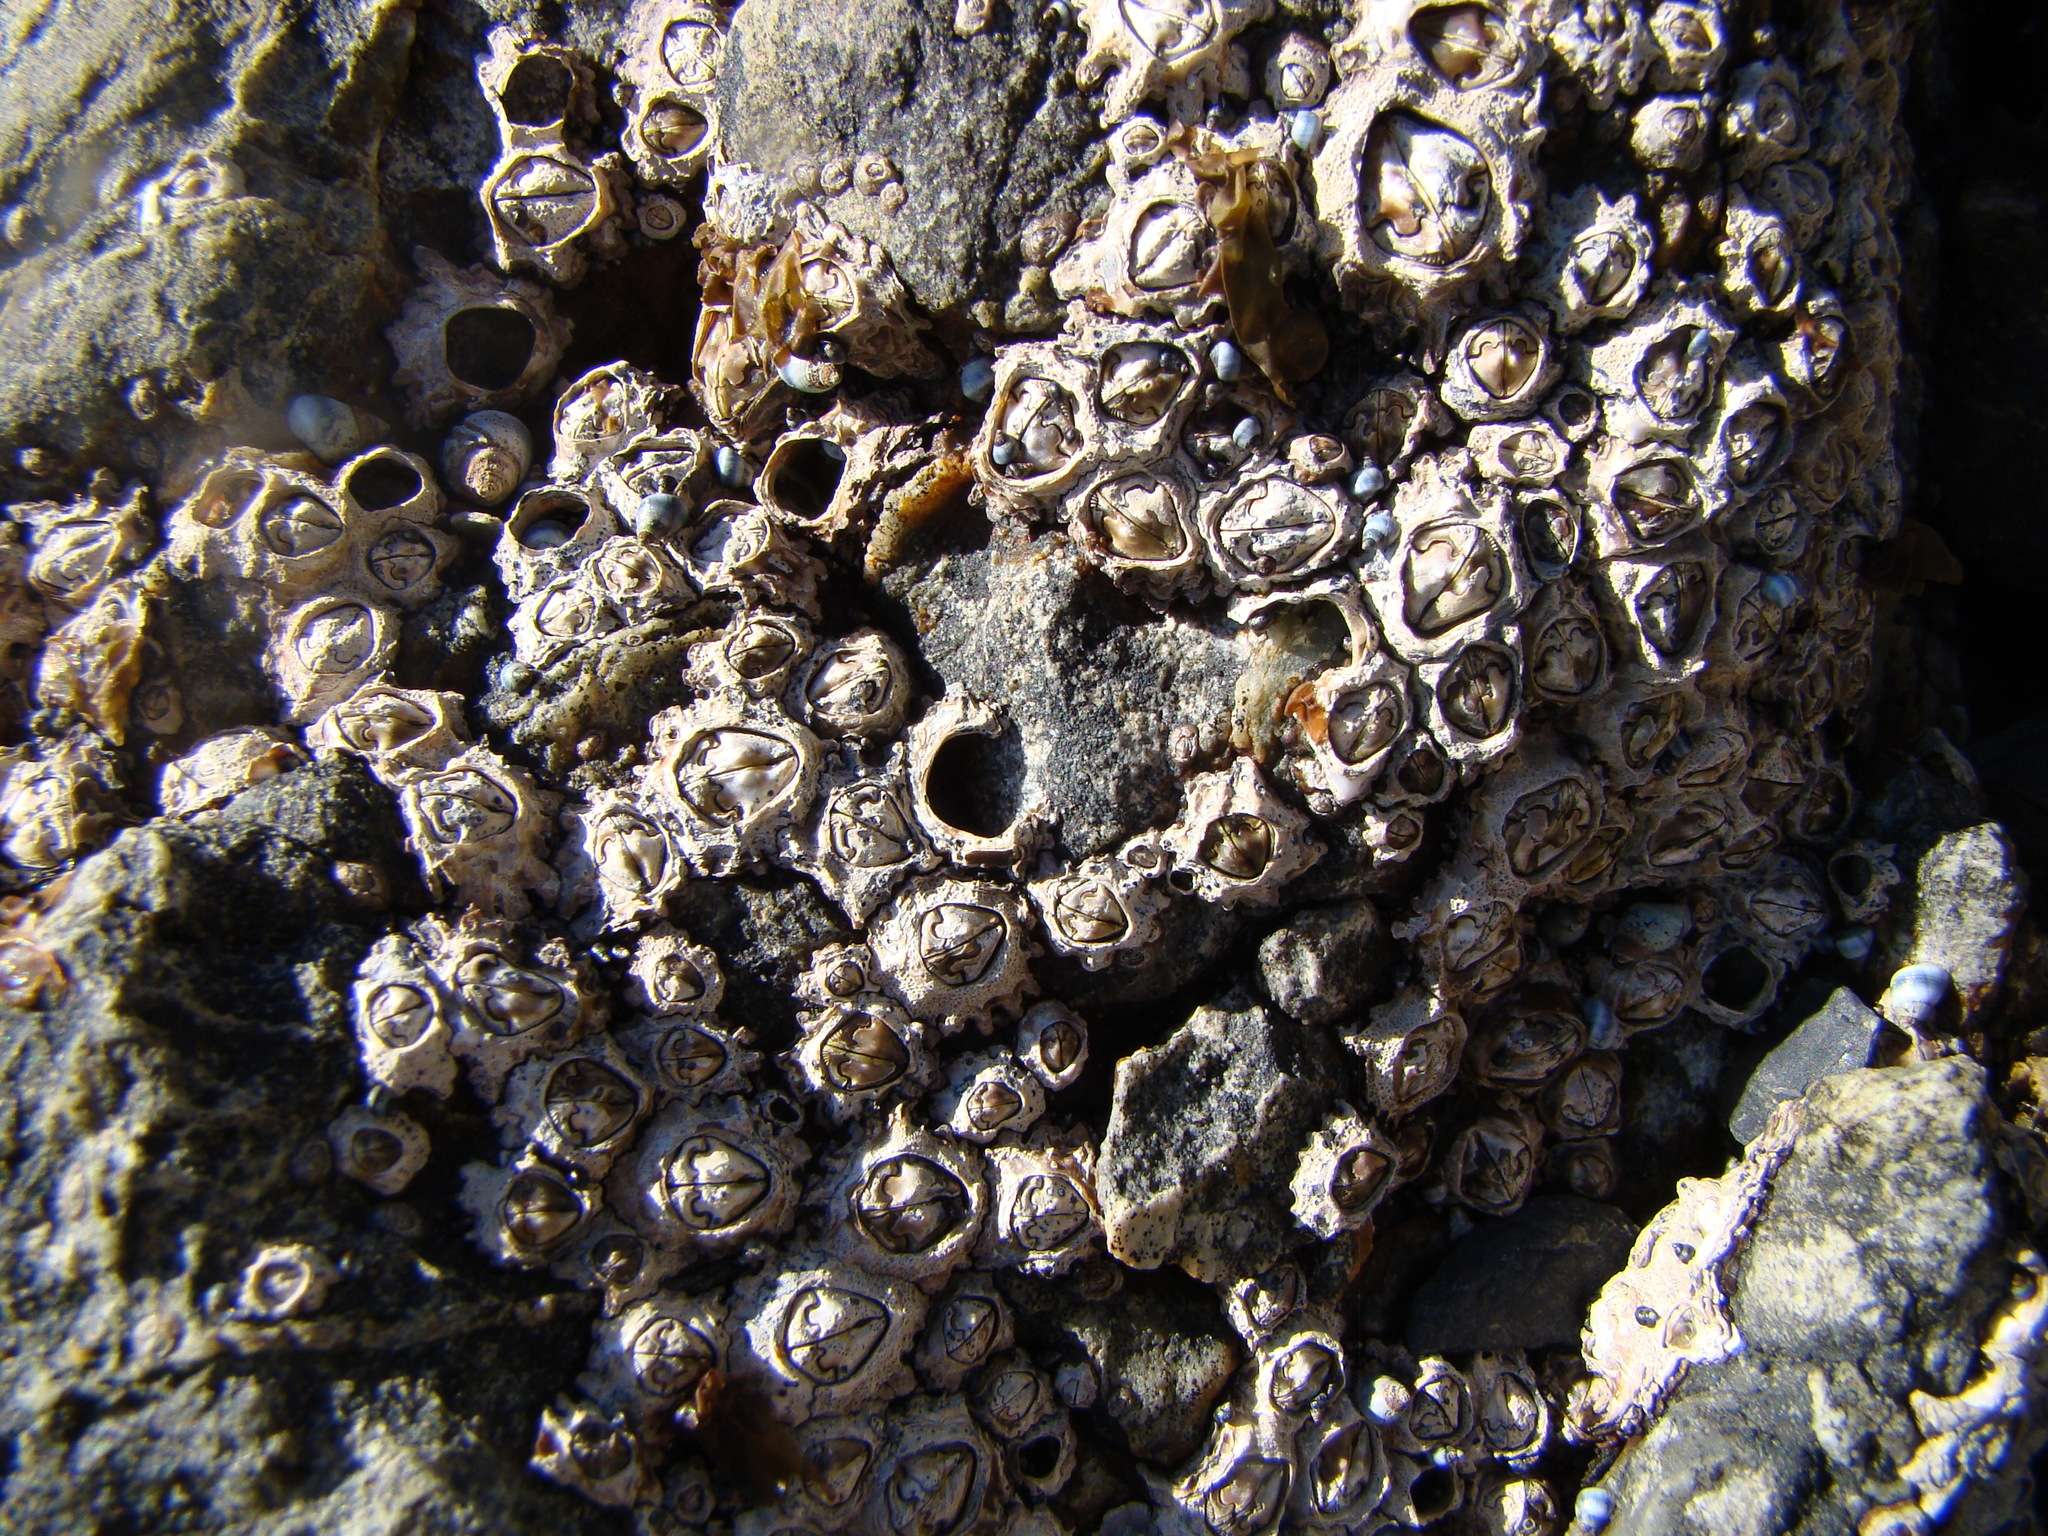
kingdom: Animalia
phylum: Arthropoda
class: Maxillopoda
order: Sessilia
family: Chthamalidae
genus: Chamaesipho
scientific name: Chamaesipho brunnea
